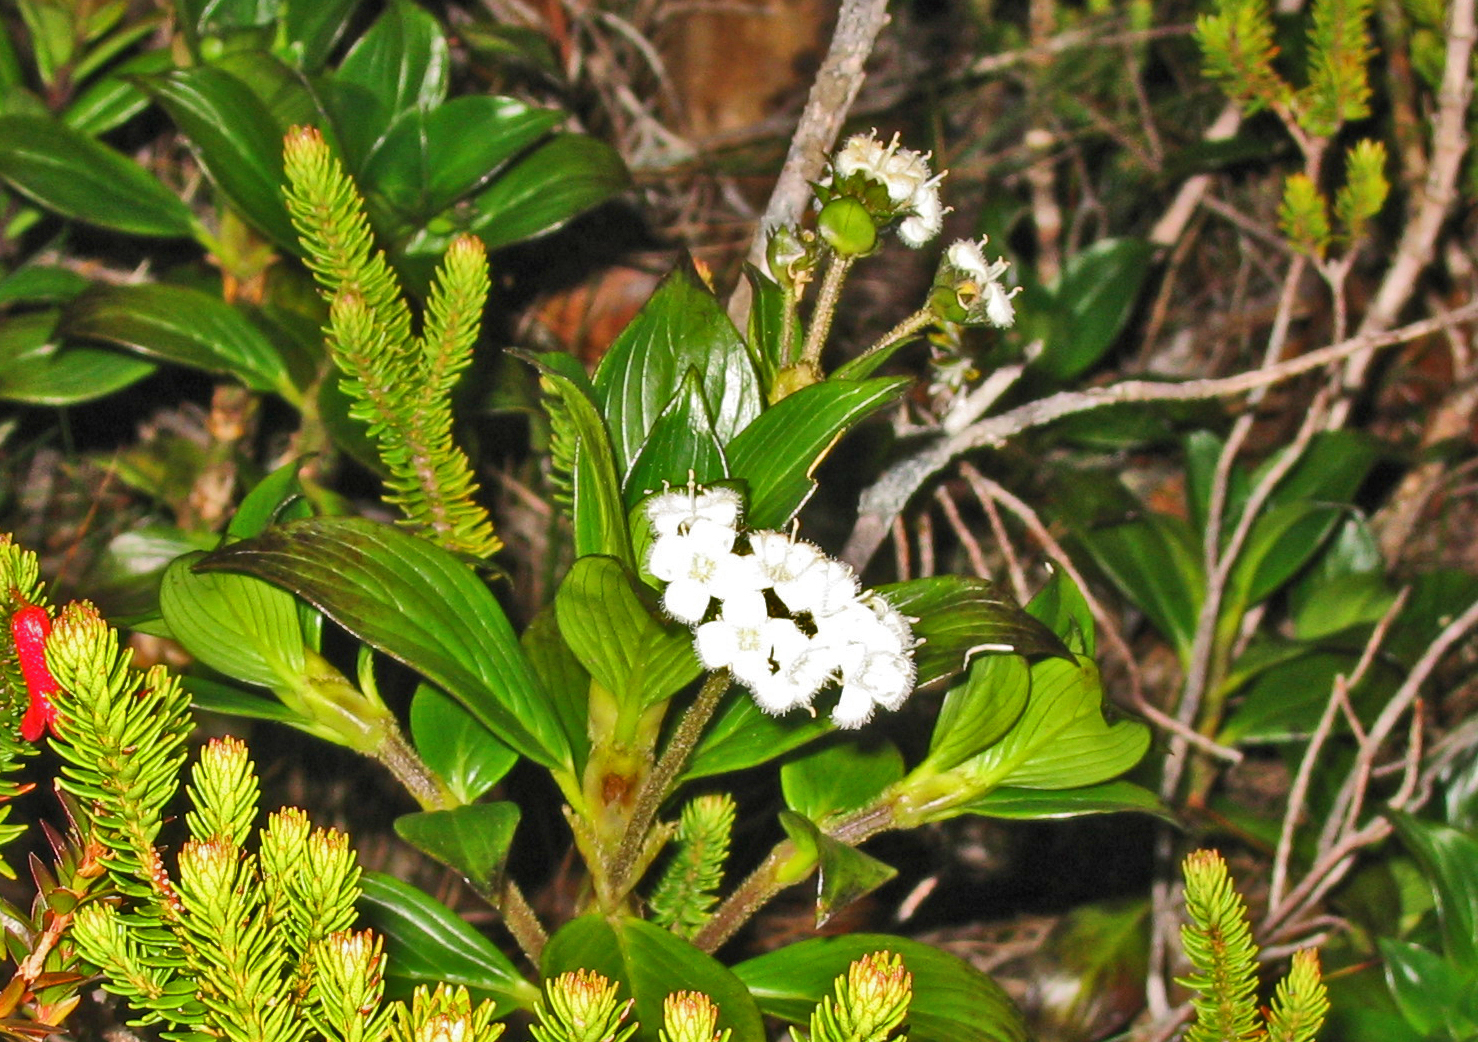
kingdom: Plantae
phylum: Tracheophyta
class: Magnoliopsida
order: Gentianales
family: Rubiaceae
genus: Hedyotis
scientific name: Hedyotis macrostegia
